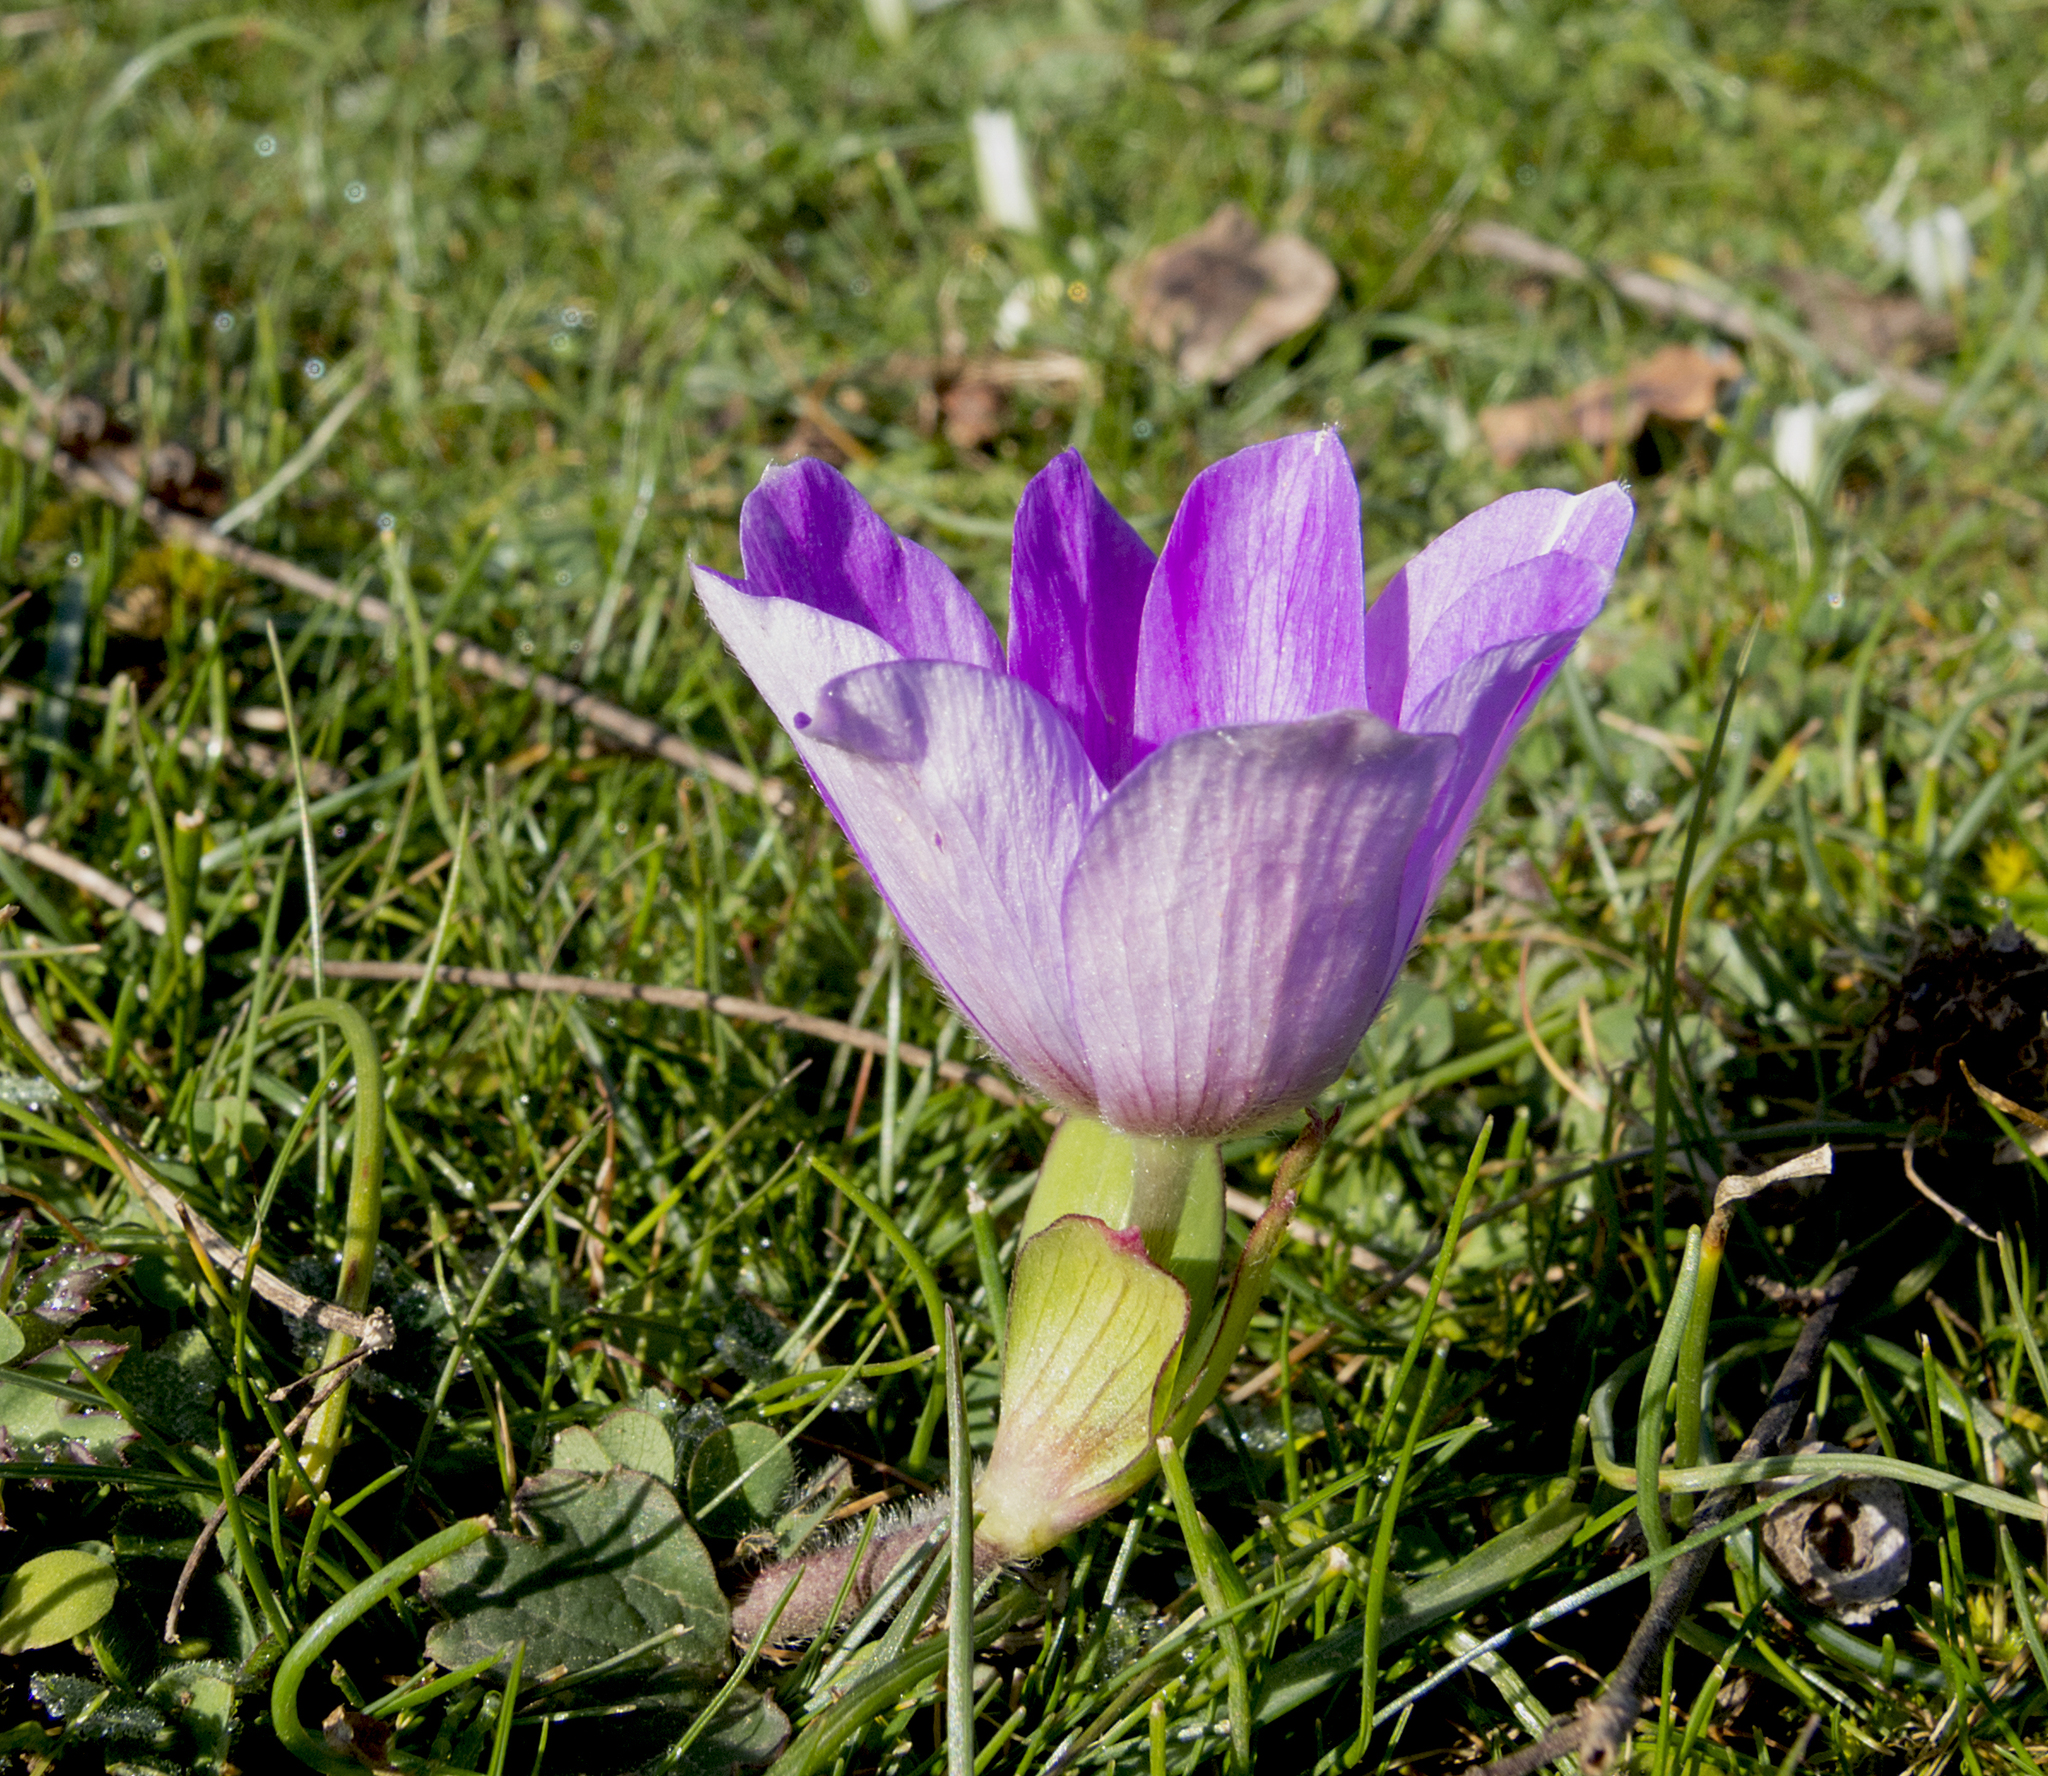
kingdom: Plantae
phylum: Tracheophyta
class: Magnoliopsida
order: Ranunculales
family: Ranunculaceae
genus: Anemone
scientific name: Anemone pavonina
